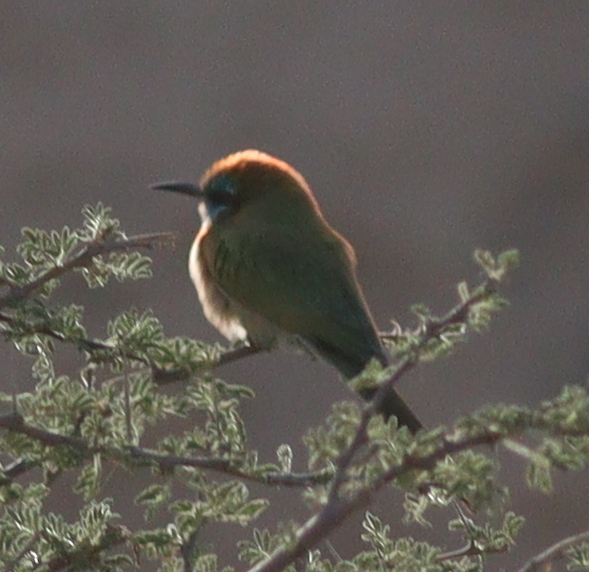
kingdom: Animalia
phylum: Chordata
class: Aves
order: Coraciiformes
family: Meropidae
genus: Merops
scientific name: Merops cyanophrys
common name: Arabian green bee-eater
